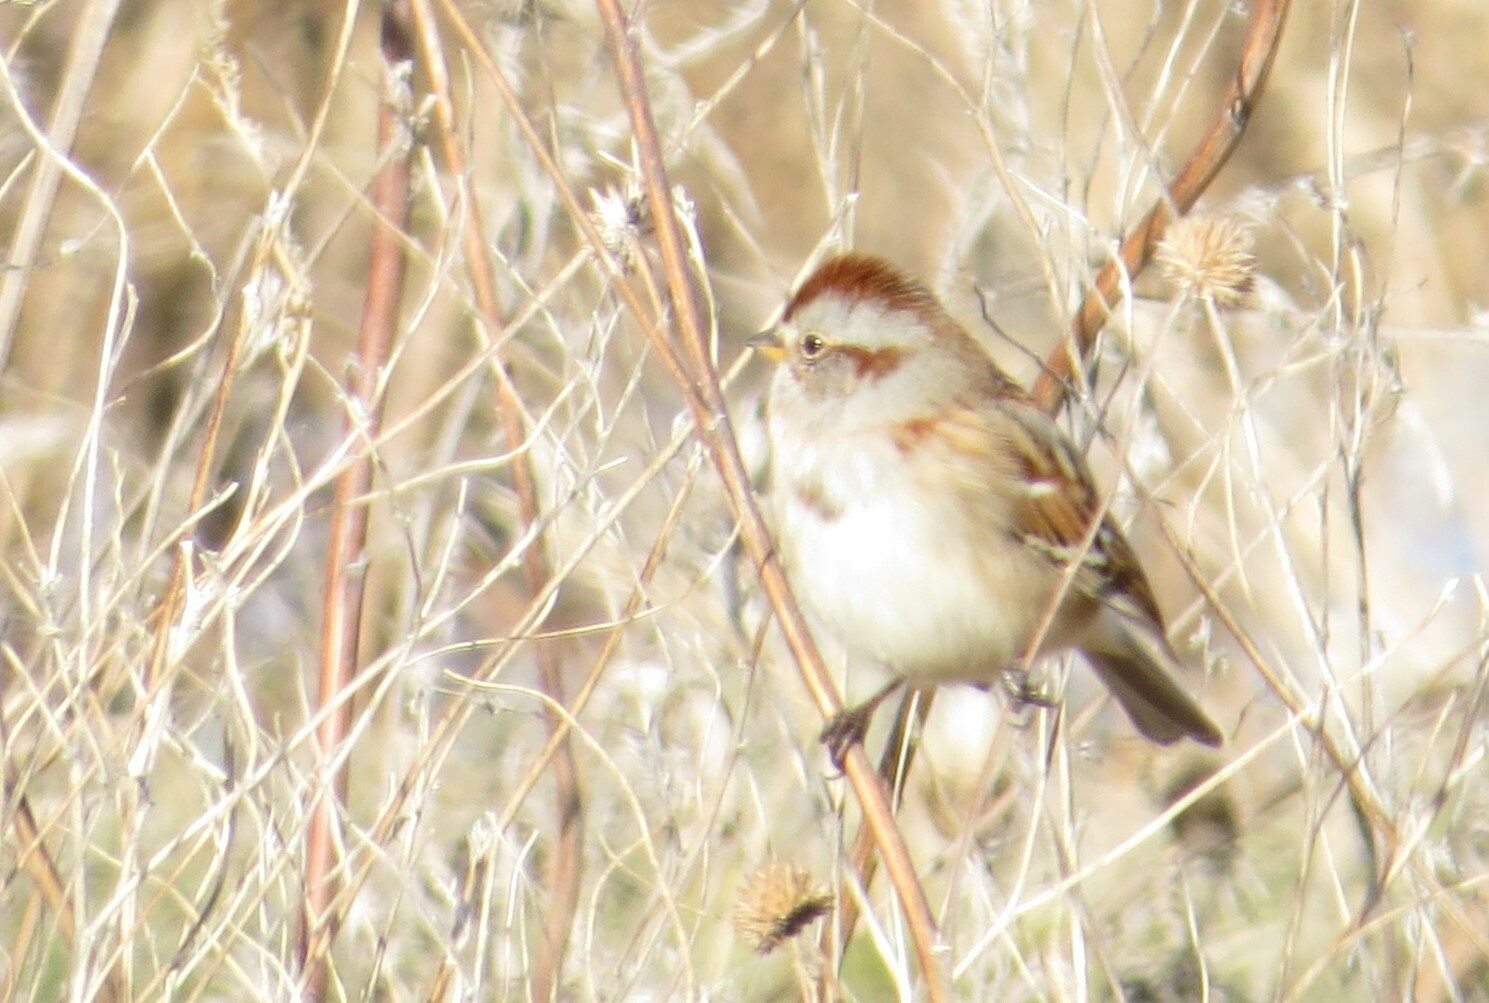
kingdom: Animalia
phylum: Chordata
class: Aves
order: Passeriformes
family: Passerellidae
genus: Spizelloides
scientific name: Spizelloides arborea
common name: American tree sparrow
